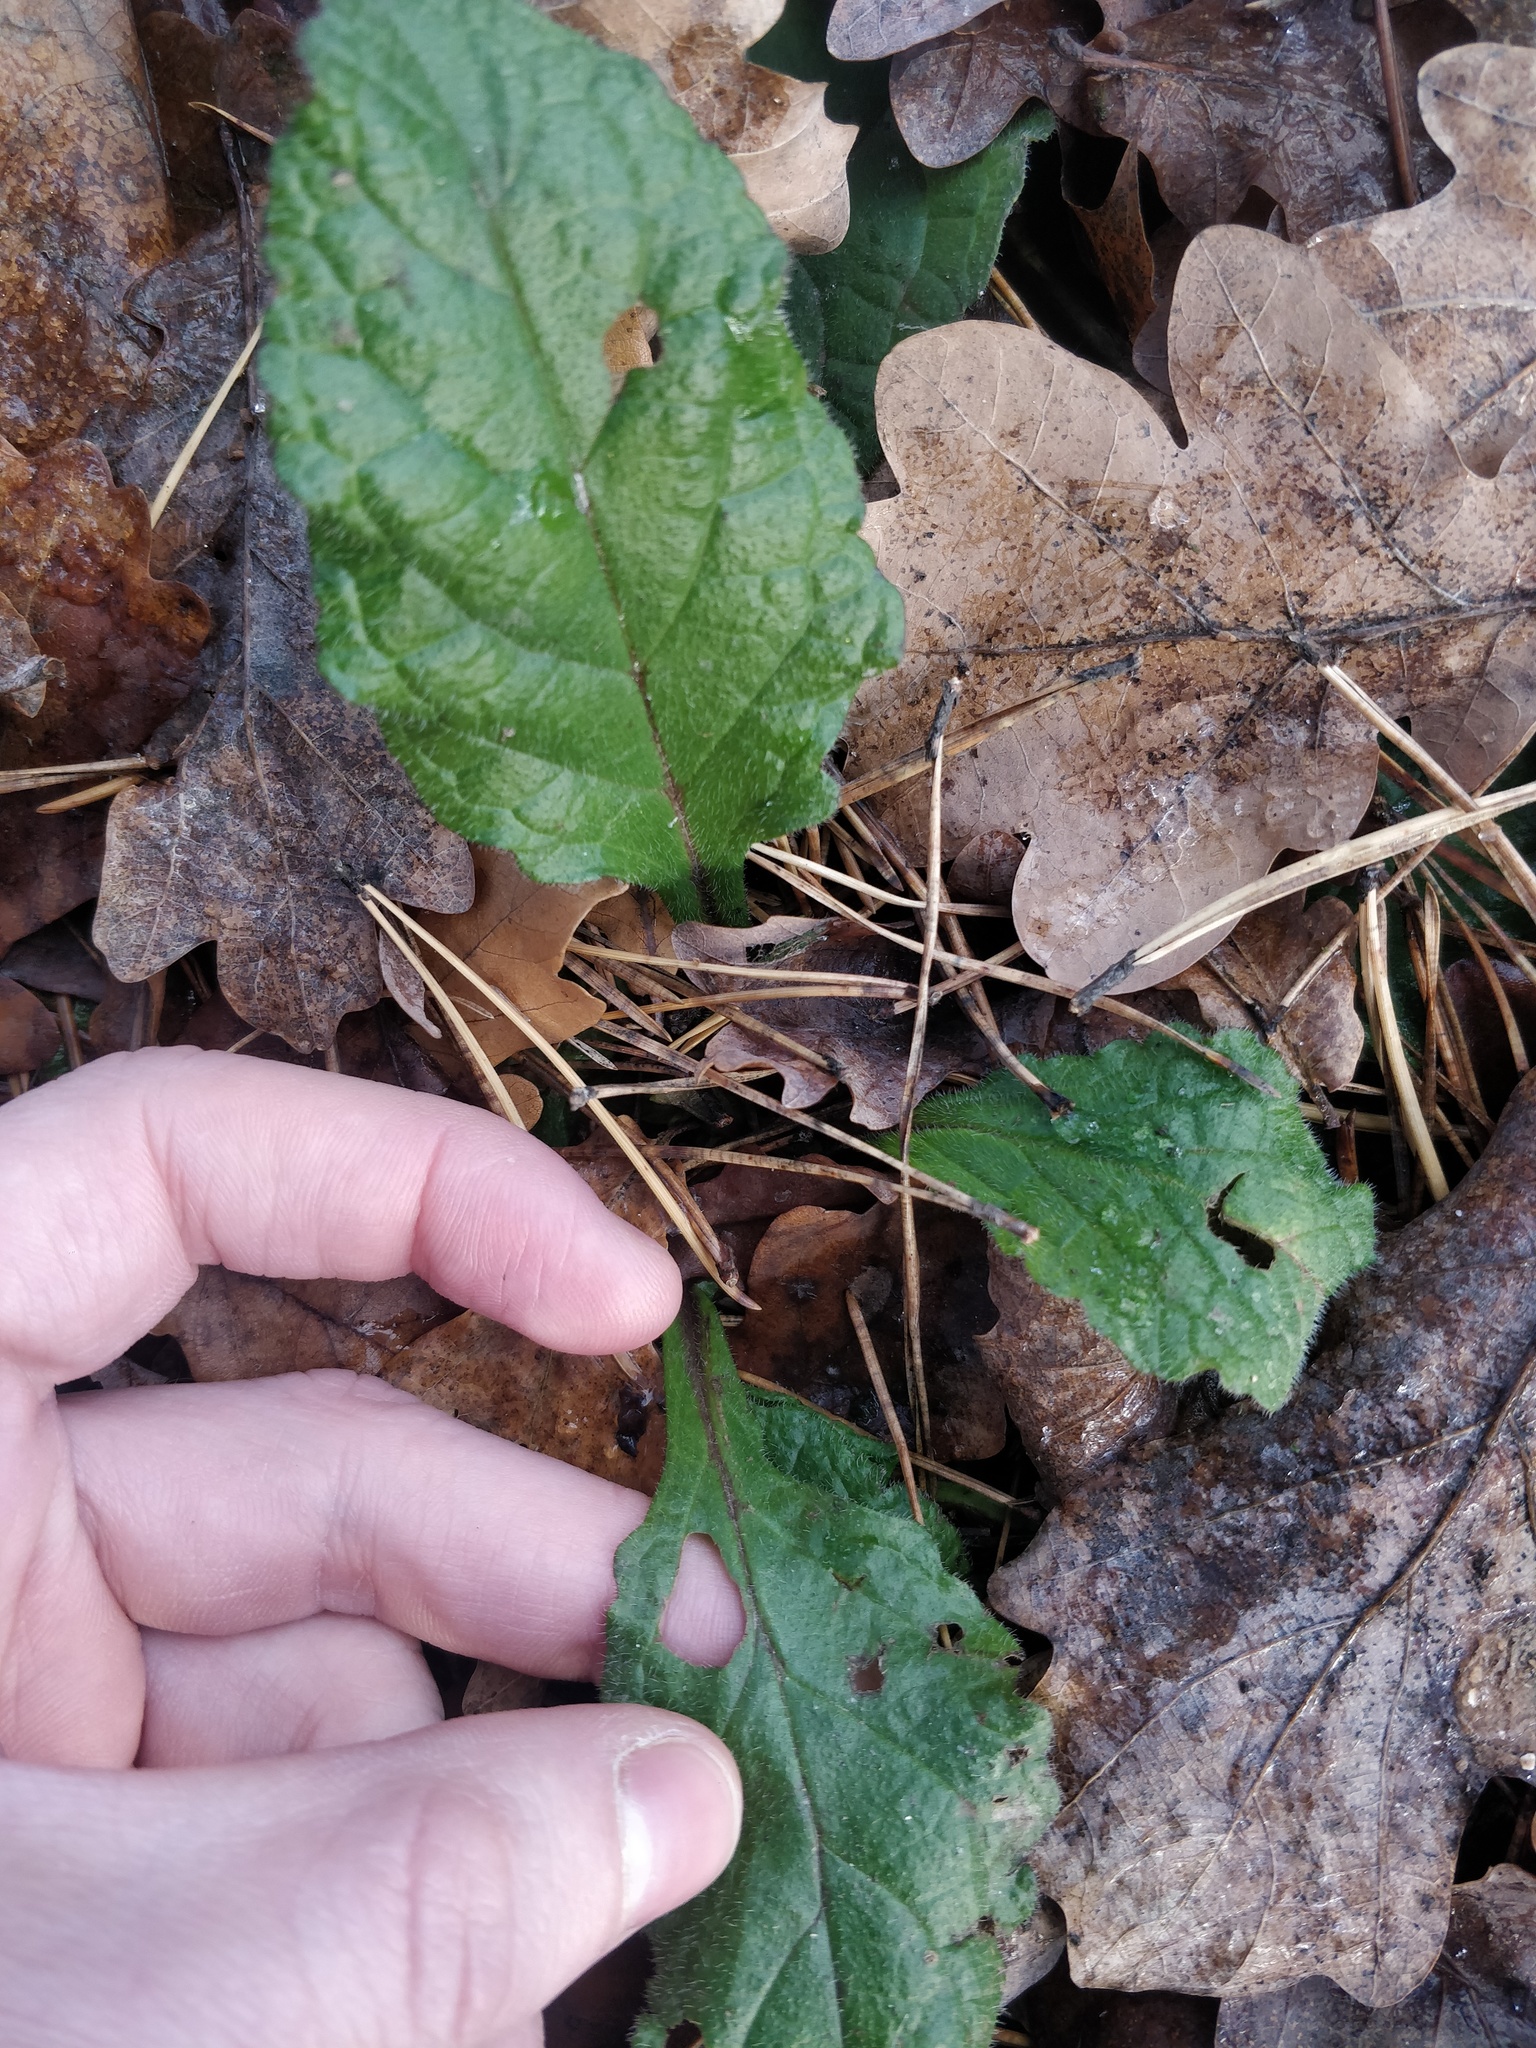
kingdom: Plantae
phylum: Tracheophyta
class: Magnoliopsida
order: Lamiales
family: Lamiaceae
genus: Ajuga
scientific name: Ajuga reptans
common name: Bugle
